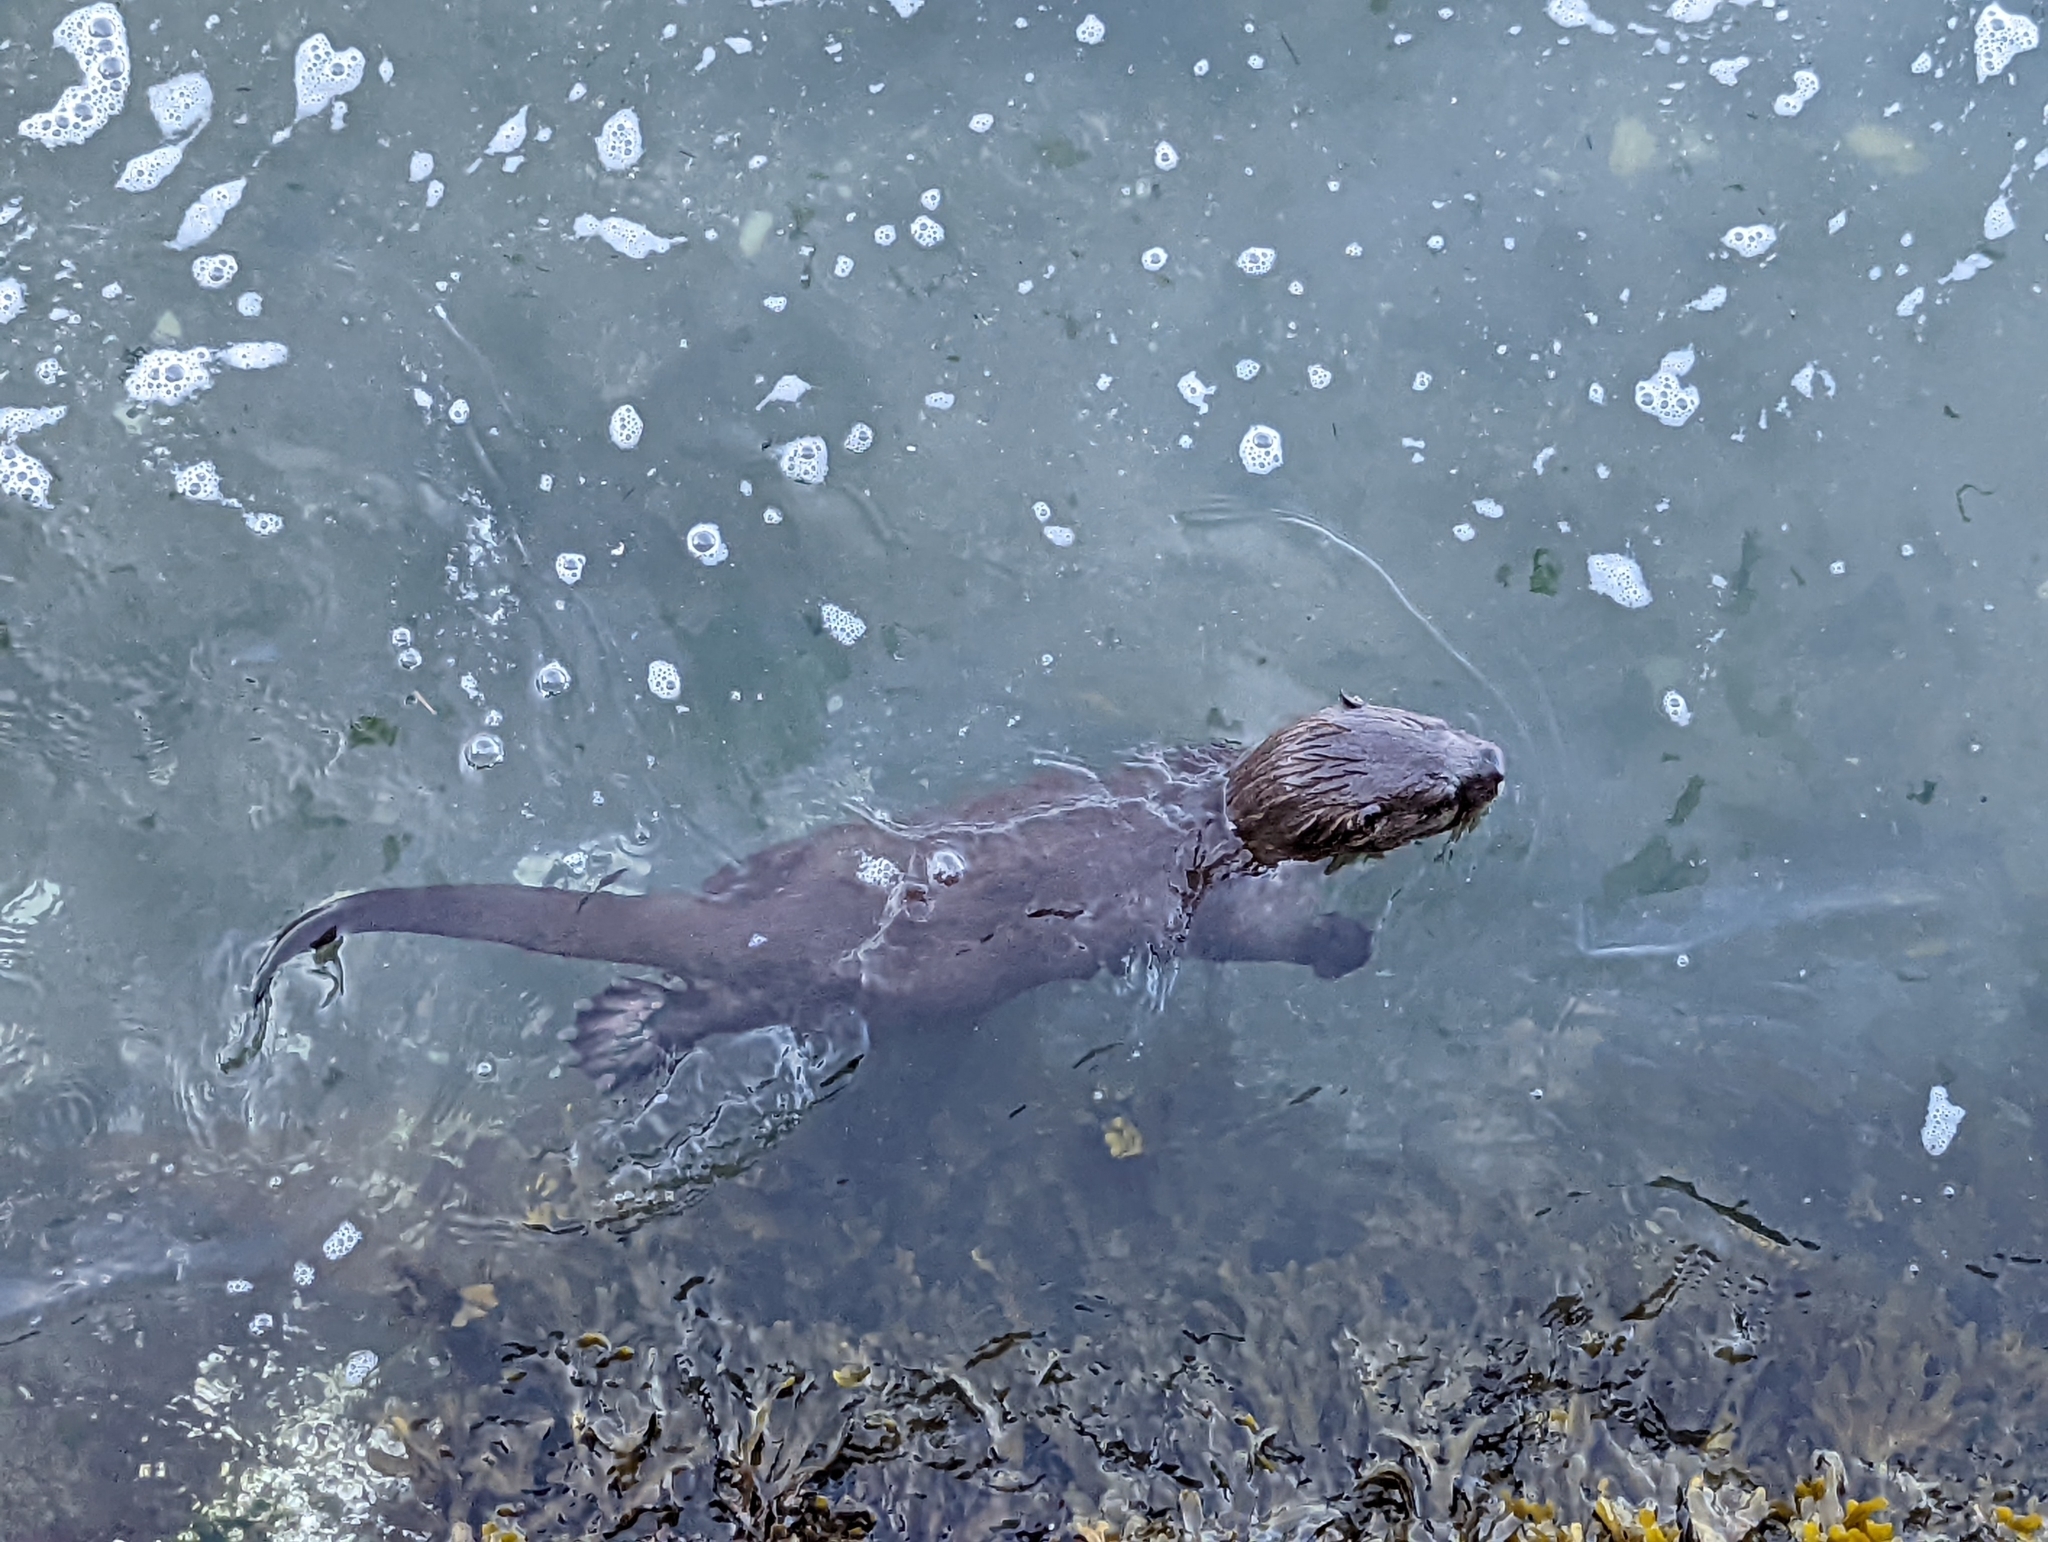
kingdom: Animalia
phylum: Chordata
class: Mammalia
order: Carnivora
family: Mustelidae
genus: Lontra
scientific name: Lontra canadensis
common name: North american river otter
